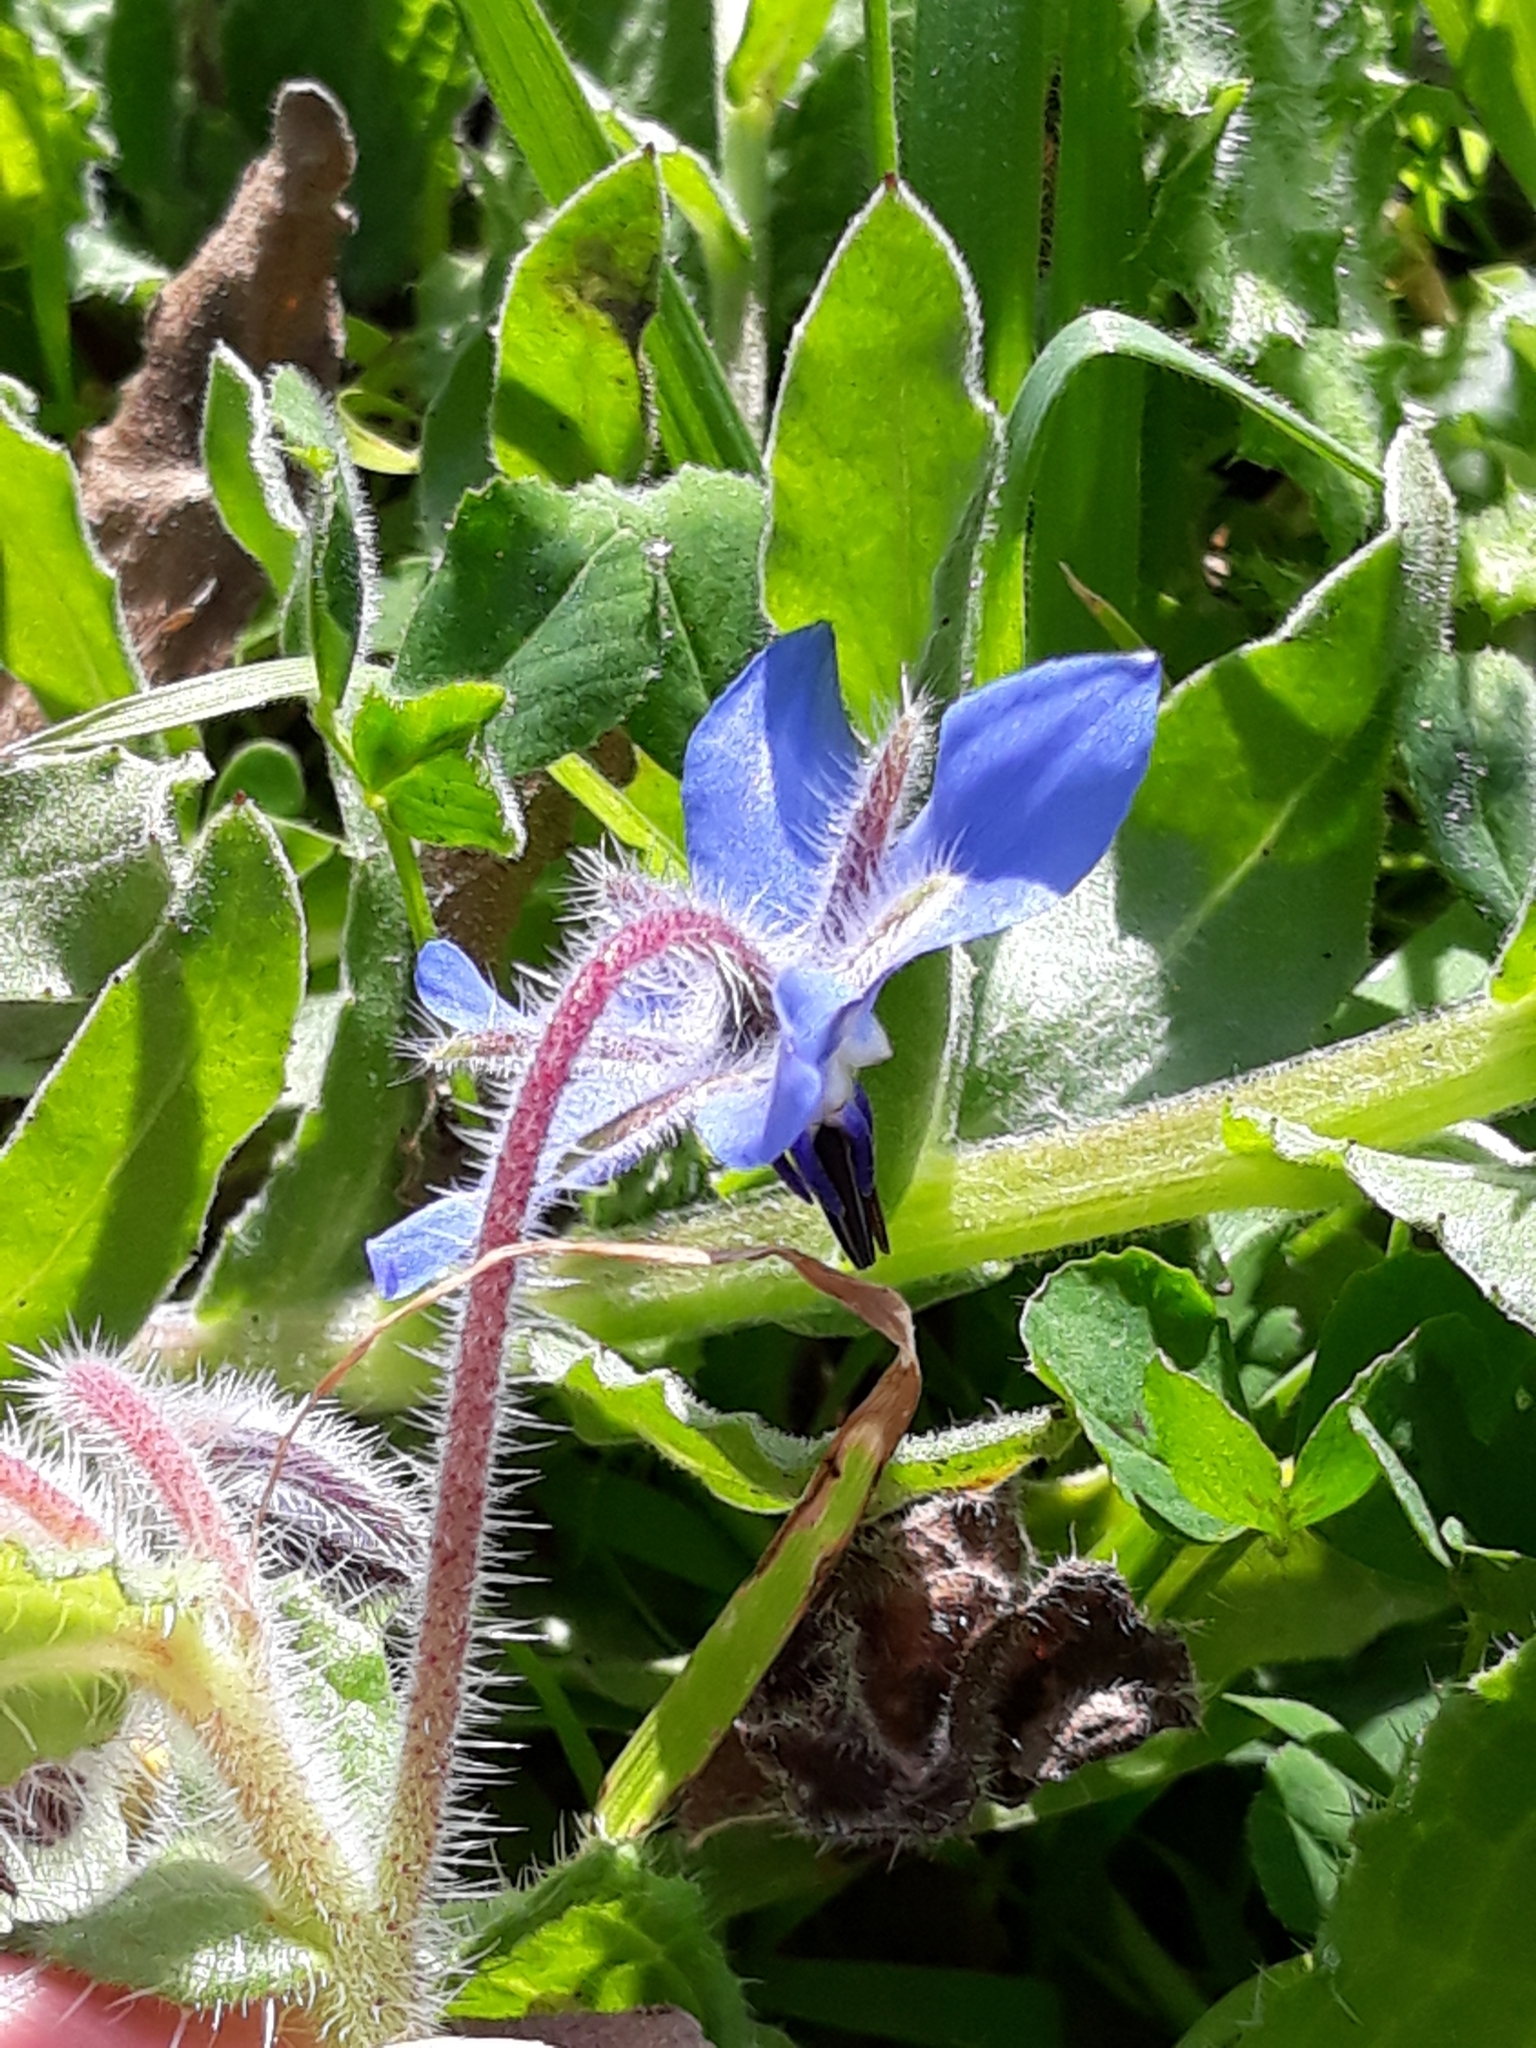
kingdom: Plantae
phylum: Tracheophyta
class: Magnoliopsida
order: Boraginales
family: Boraginaceae
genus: Borago
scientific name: Borago officinalis
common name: Borage
